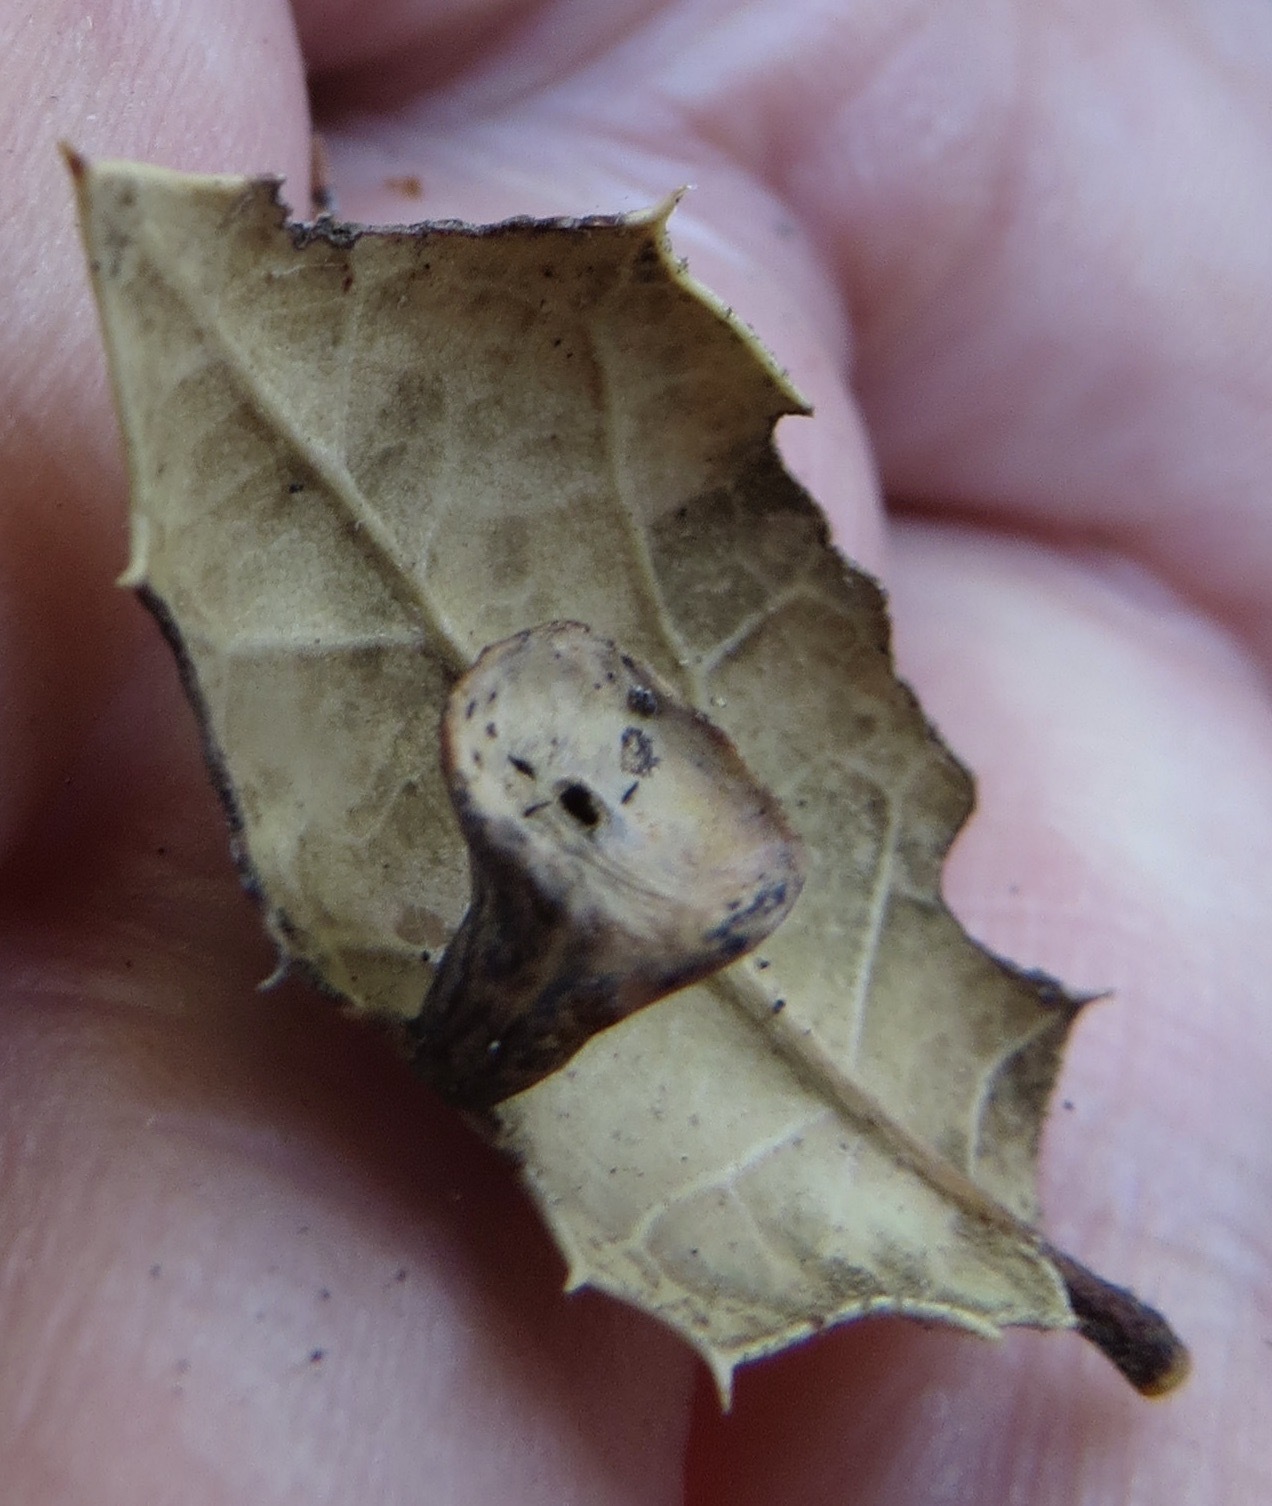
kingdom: Animalia
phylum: Arthropoda
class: Insecta
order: Hymenoptera
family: Cynipidae
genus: Amphibolips
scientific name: Amphibolips quercuspomiformis
